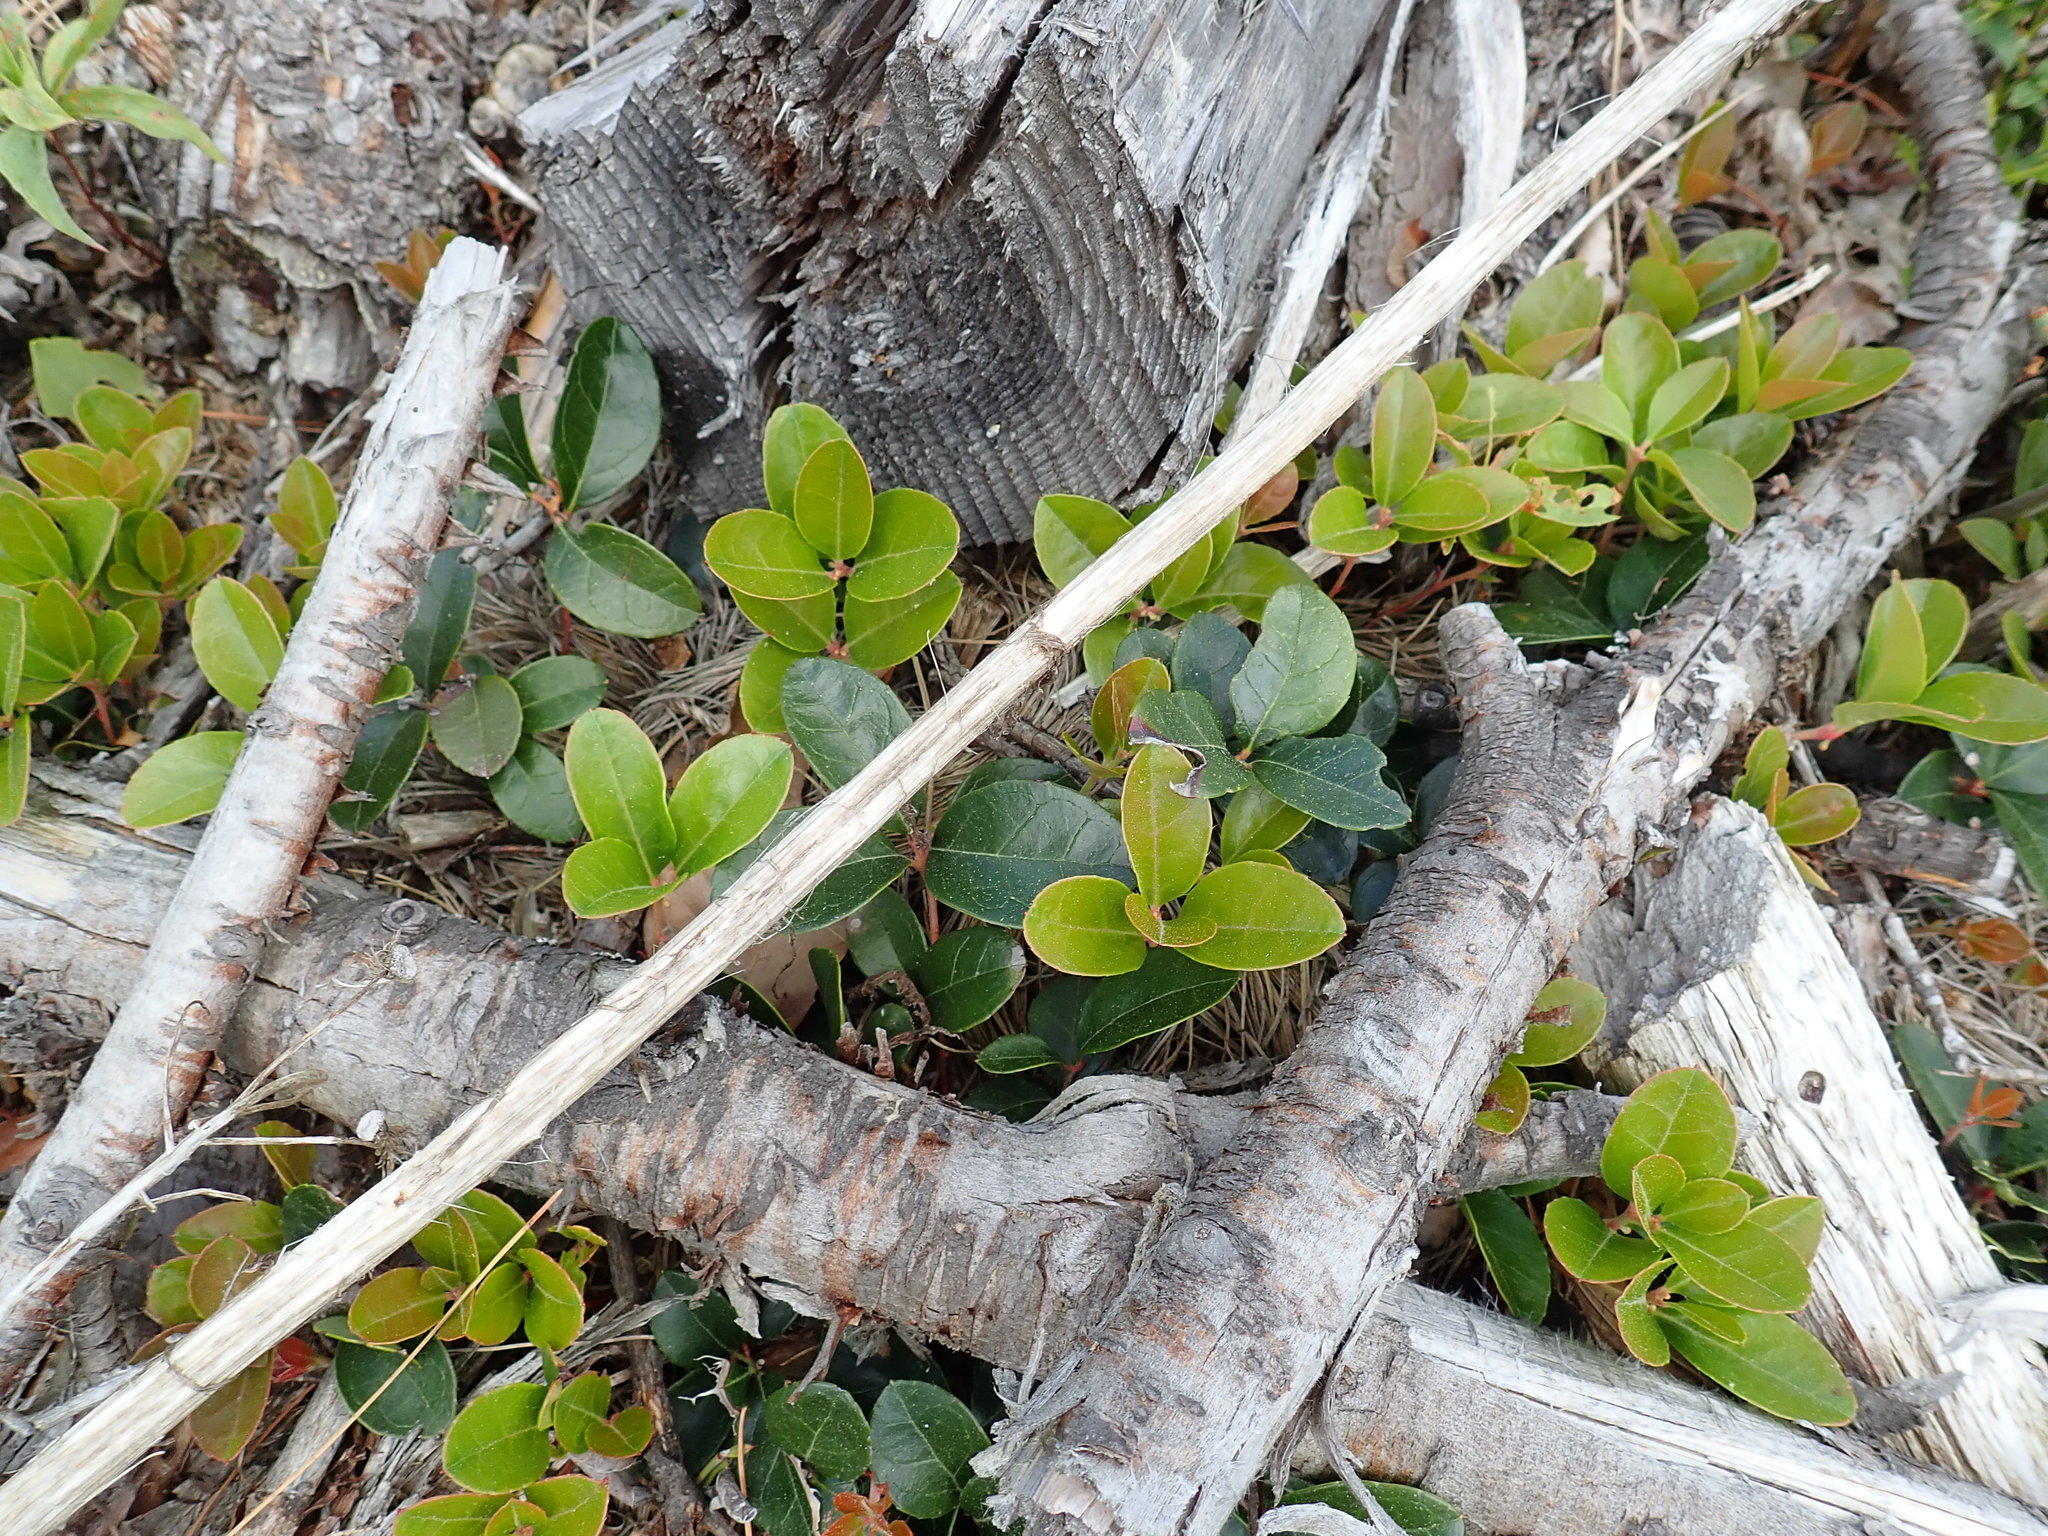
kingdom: Plantae
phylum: Tracheophyta
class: Magnoliopsida
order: Ericales
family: Ericaceae
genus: Gaultheria
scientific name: Gaultheria procumbens
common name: Checkerberry
